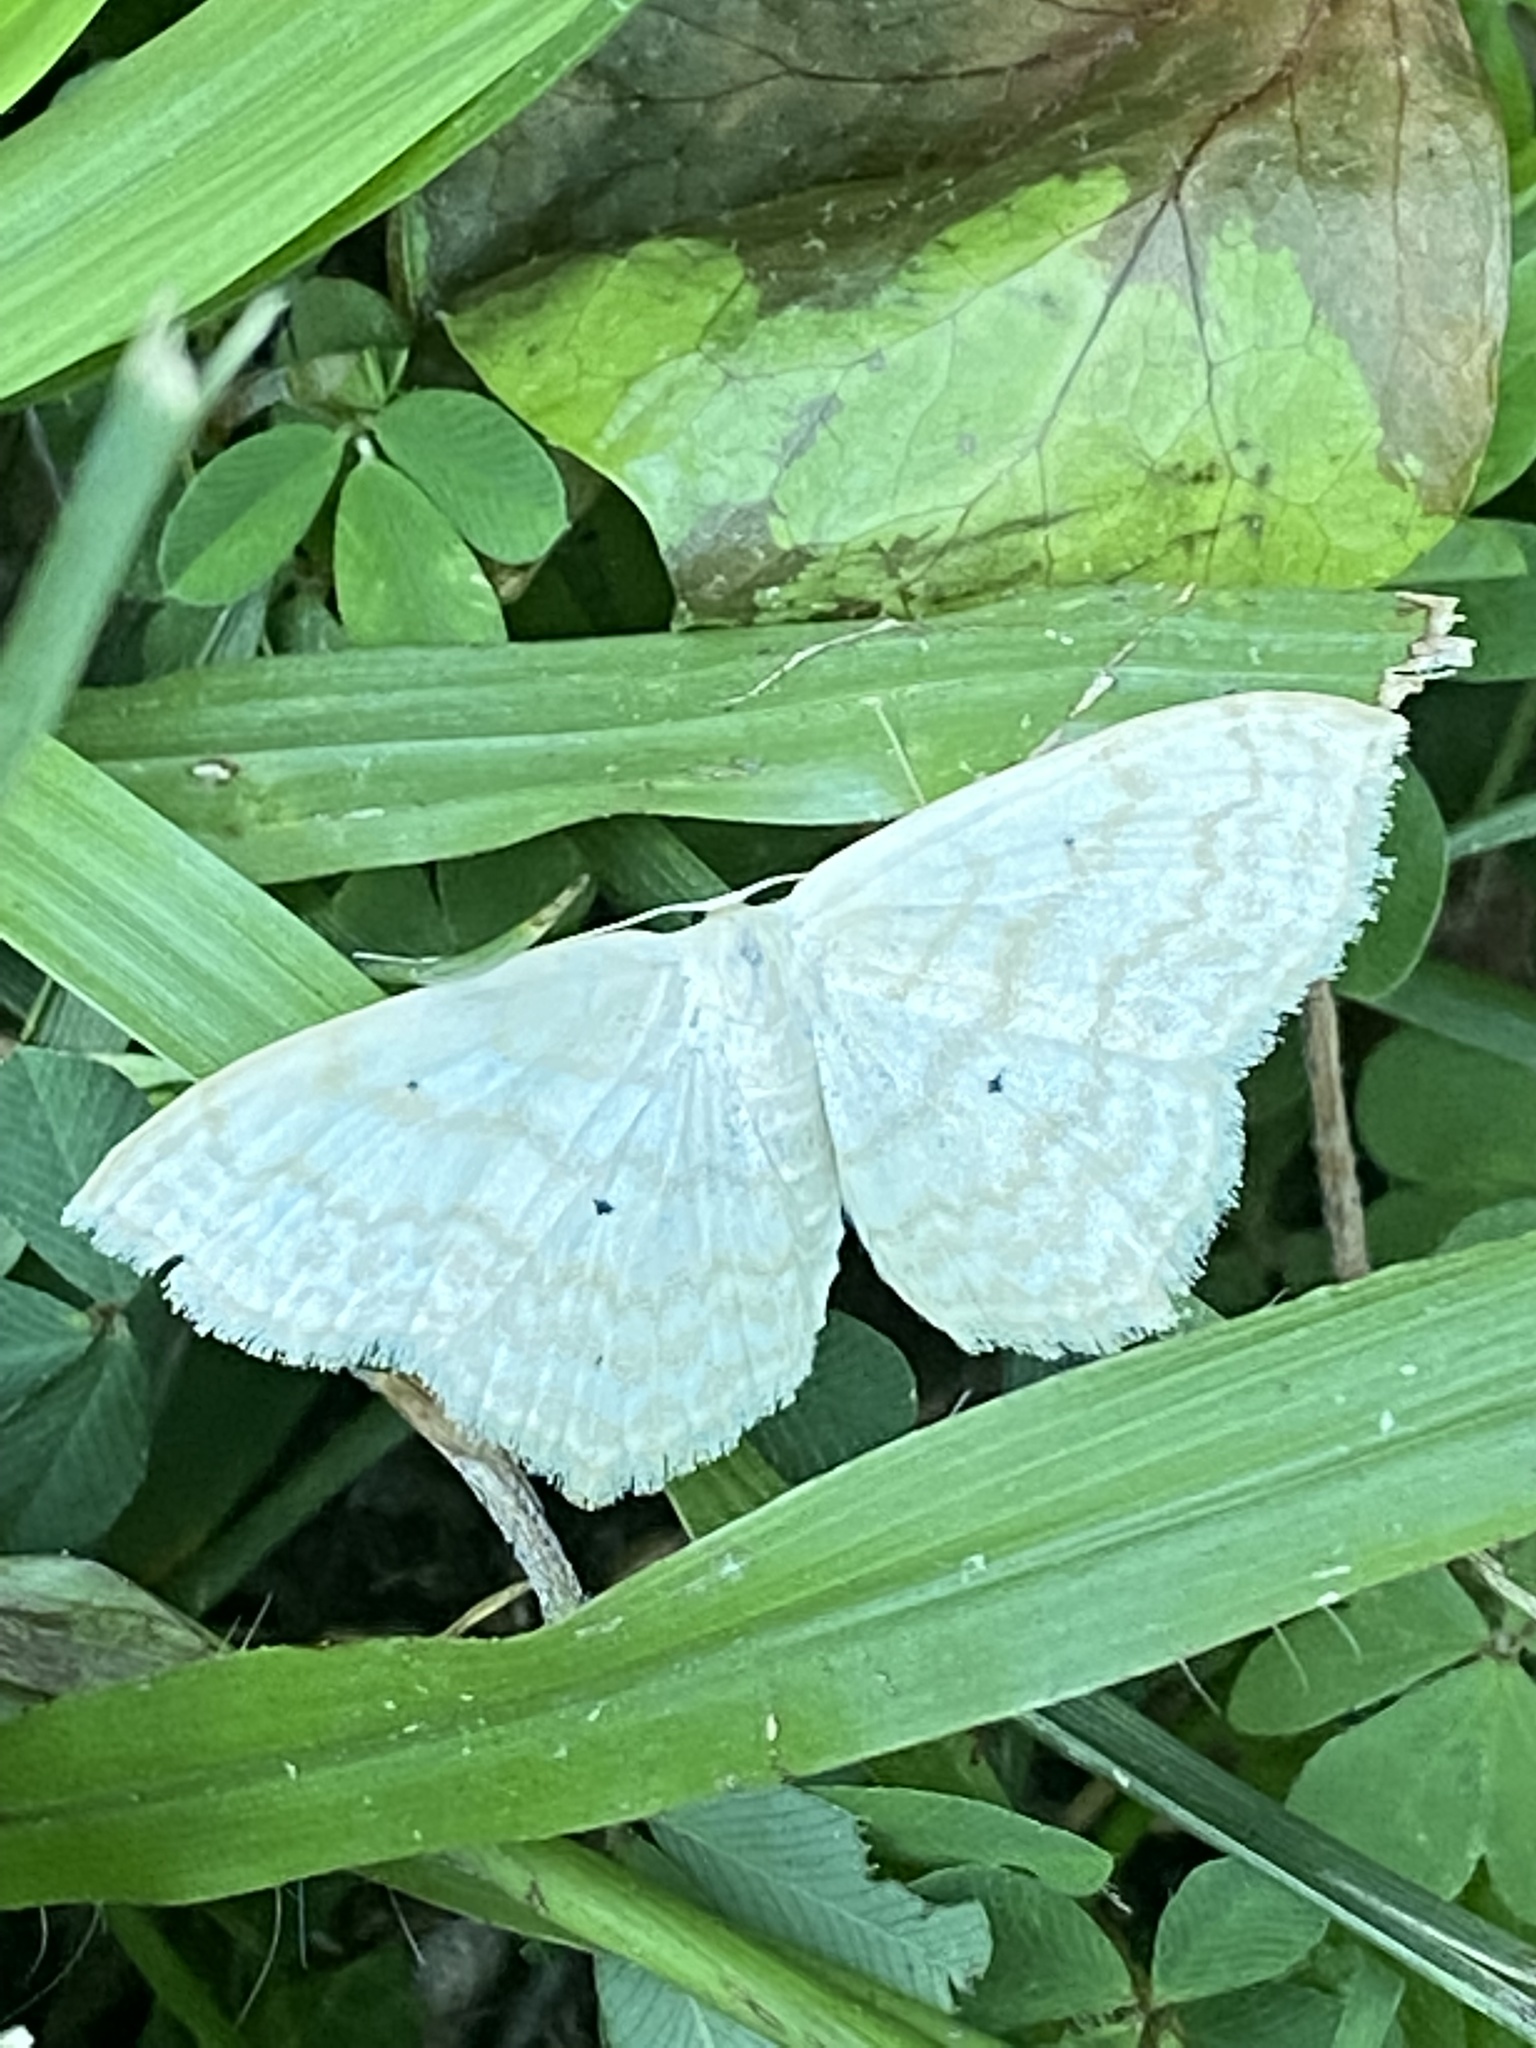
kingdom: Animalia
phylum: Arthropoda
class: Insecta
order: Lepidoptera
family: Geometridae
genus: Scopula
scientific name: Scopula limboundata
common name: Large lace border
